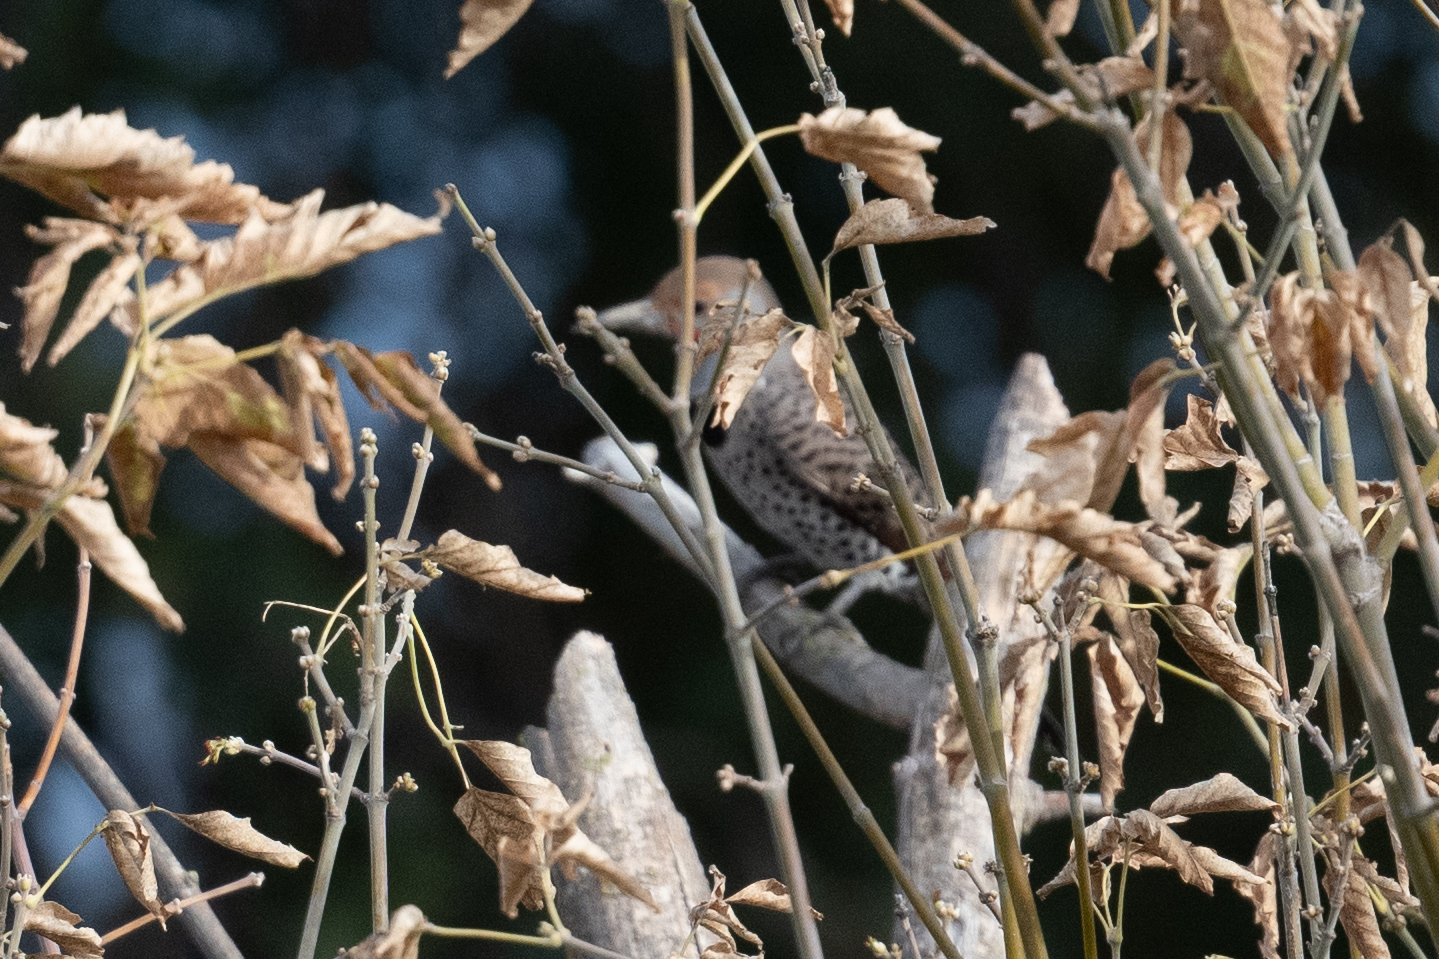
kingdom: Animalia
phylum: Chordata
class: Aves
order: Piciformes
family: Picidae
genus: Colaptes
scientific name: Colaptes auratus
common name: Northern flicker
